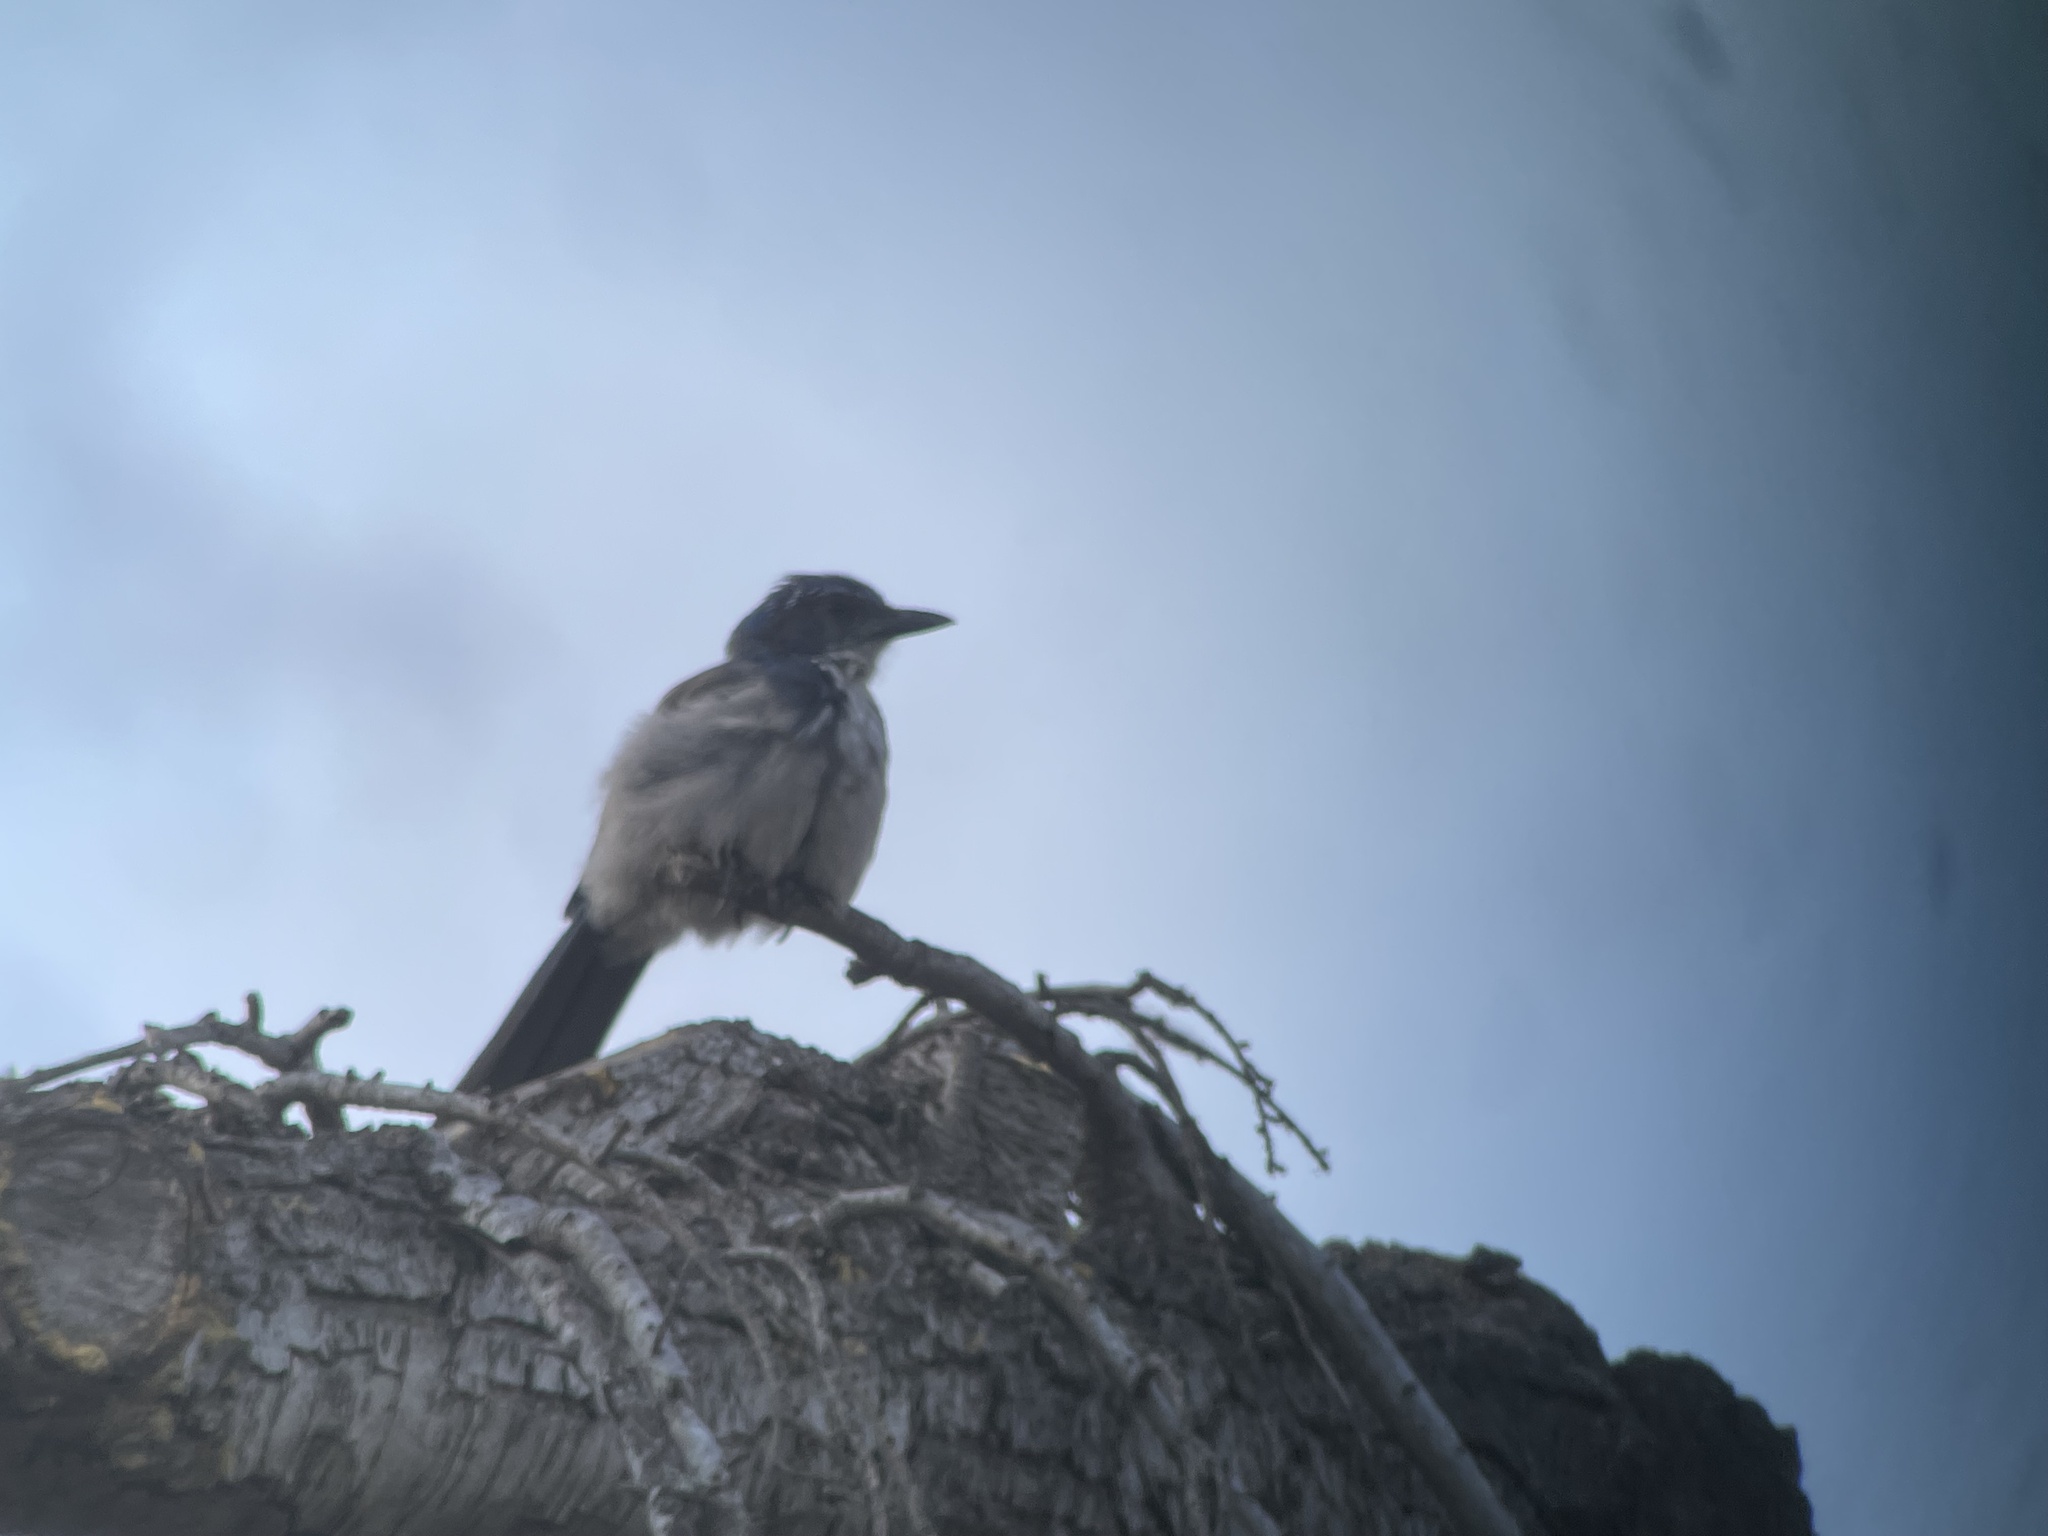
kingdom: Animalia
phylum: Chordata
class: Aves
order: Passeriformes
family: Corvidae
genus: Aphelocoma
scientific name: Aphelocoma californica
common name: California scrub-jay
